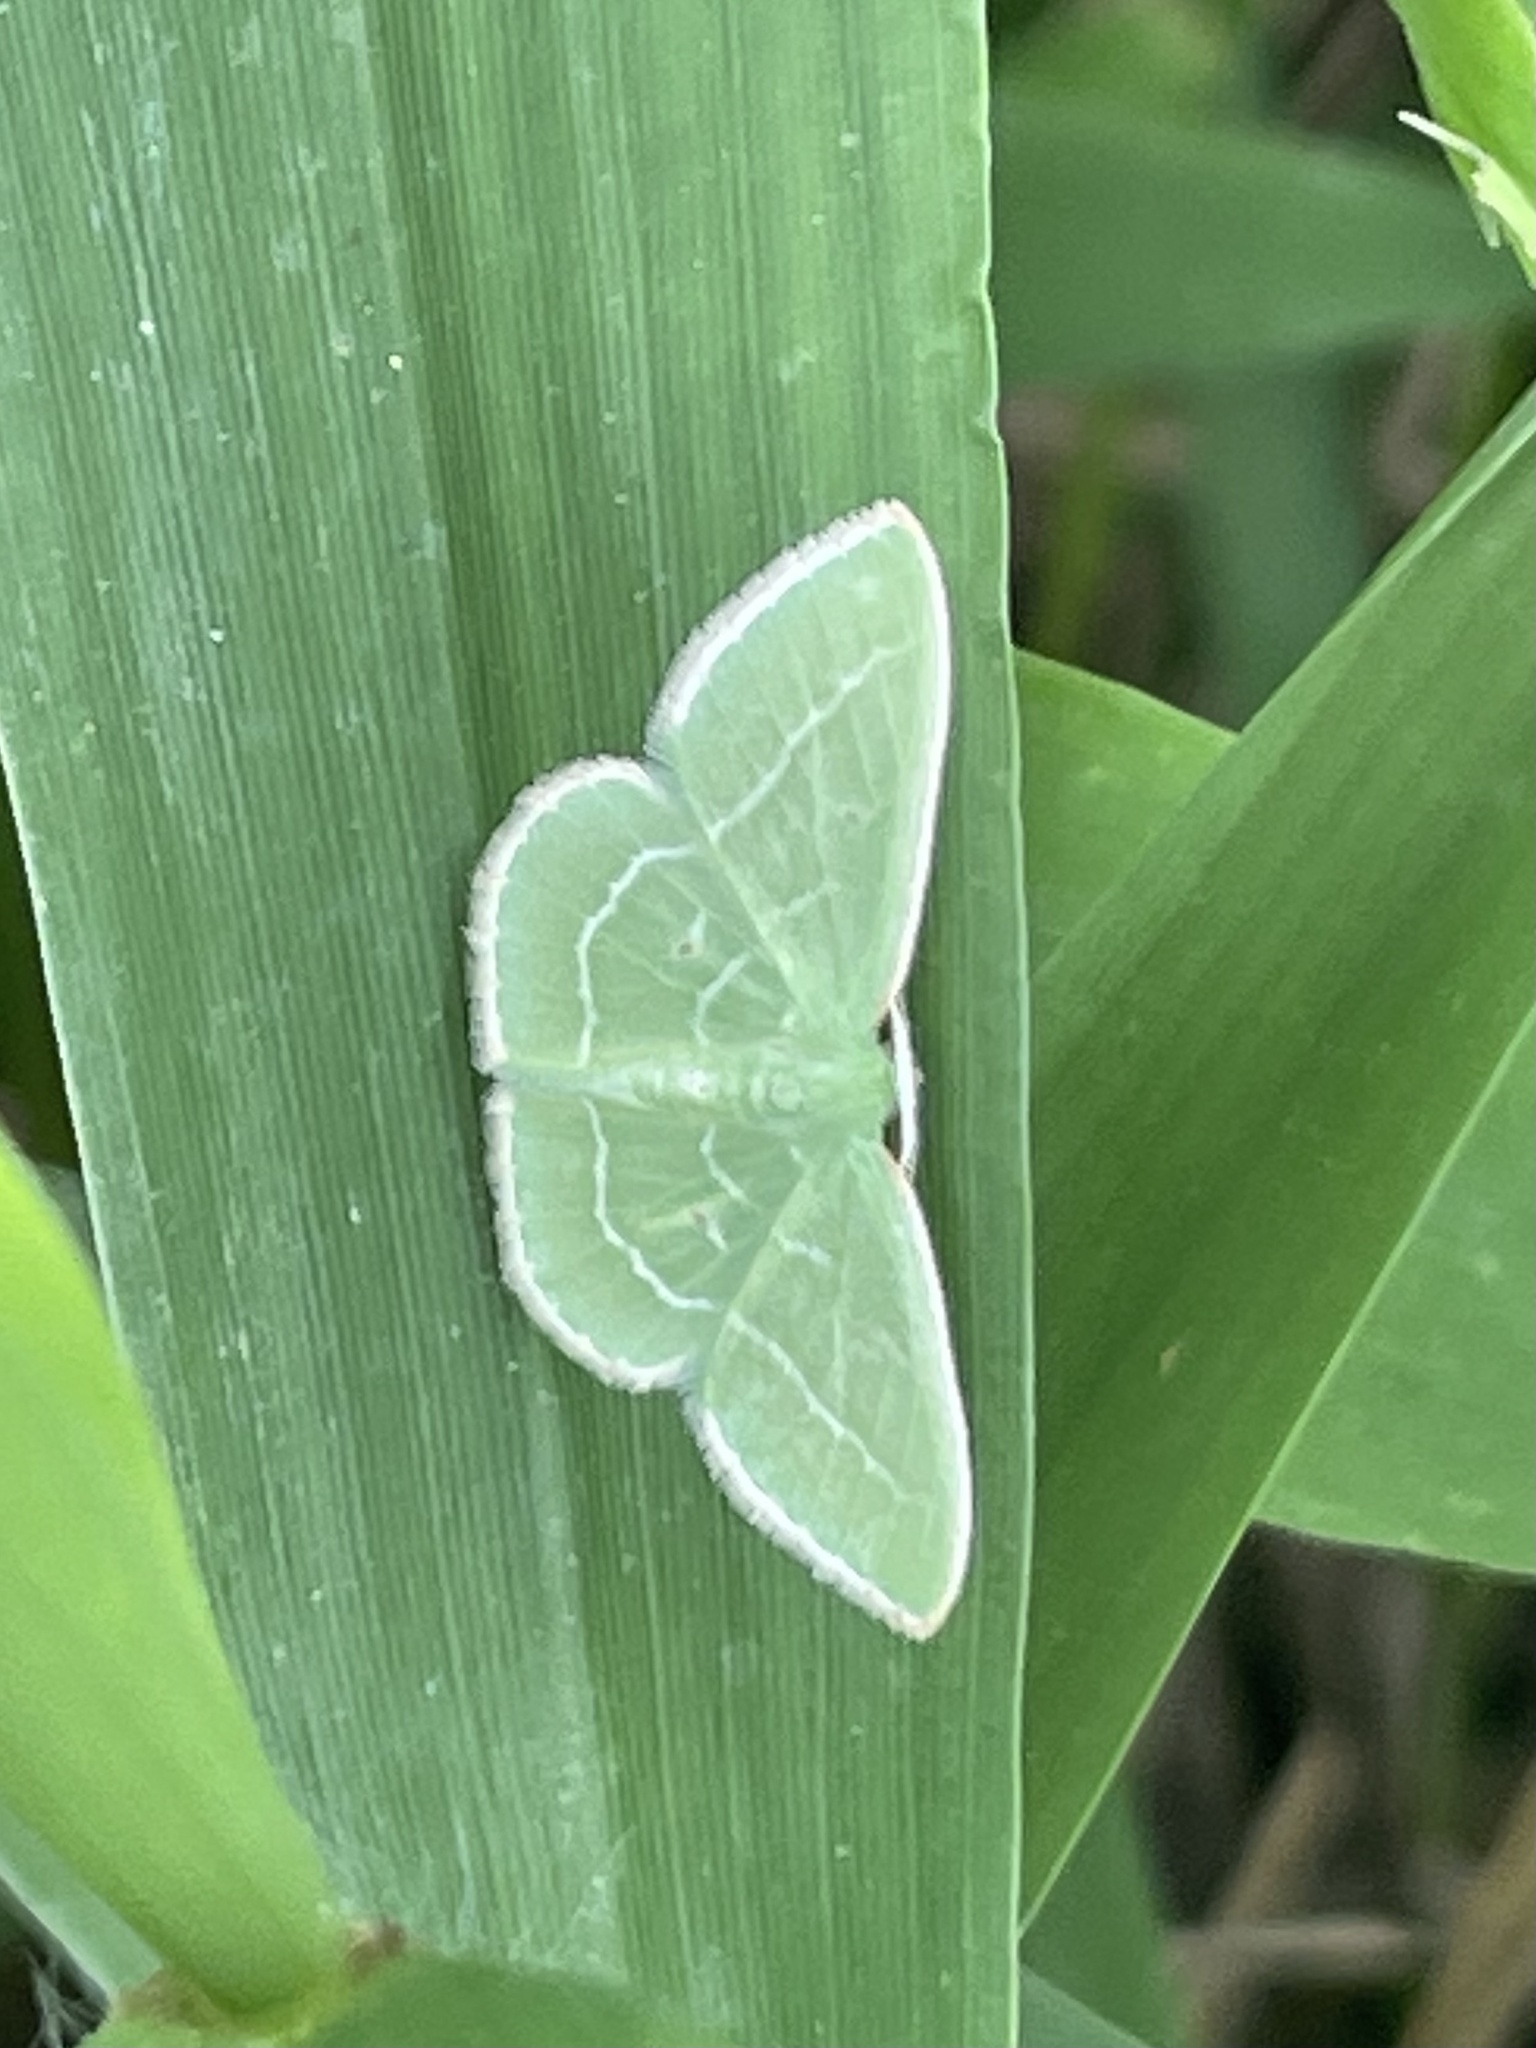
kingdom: Animalia
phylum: Arthropoda
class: Insecta
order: Lepidoptera
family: Geometridae
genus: Synchlora
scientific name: Synchlora aerata
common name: Wavy-lined emerald
